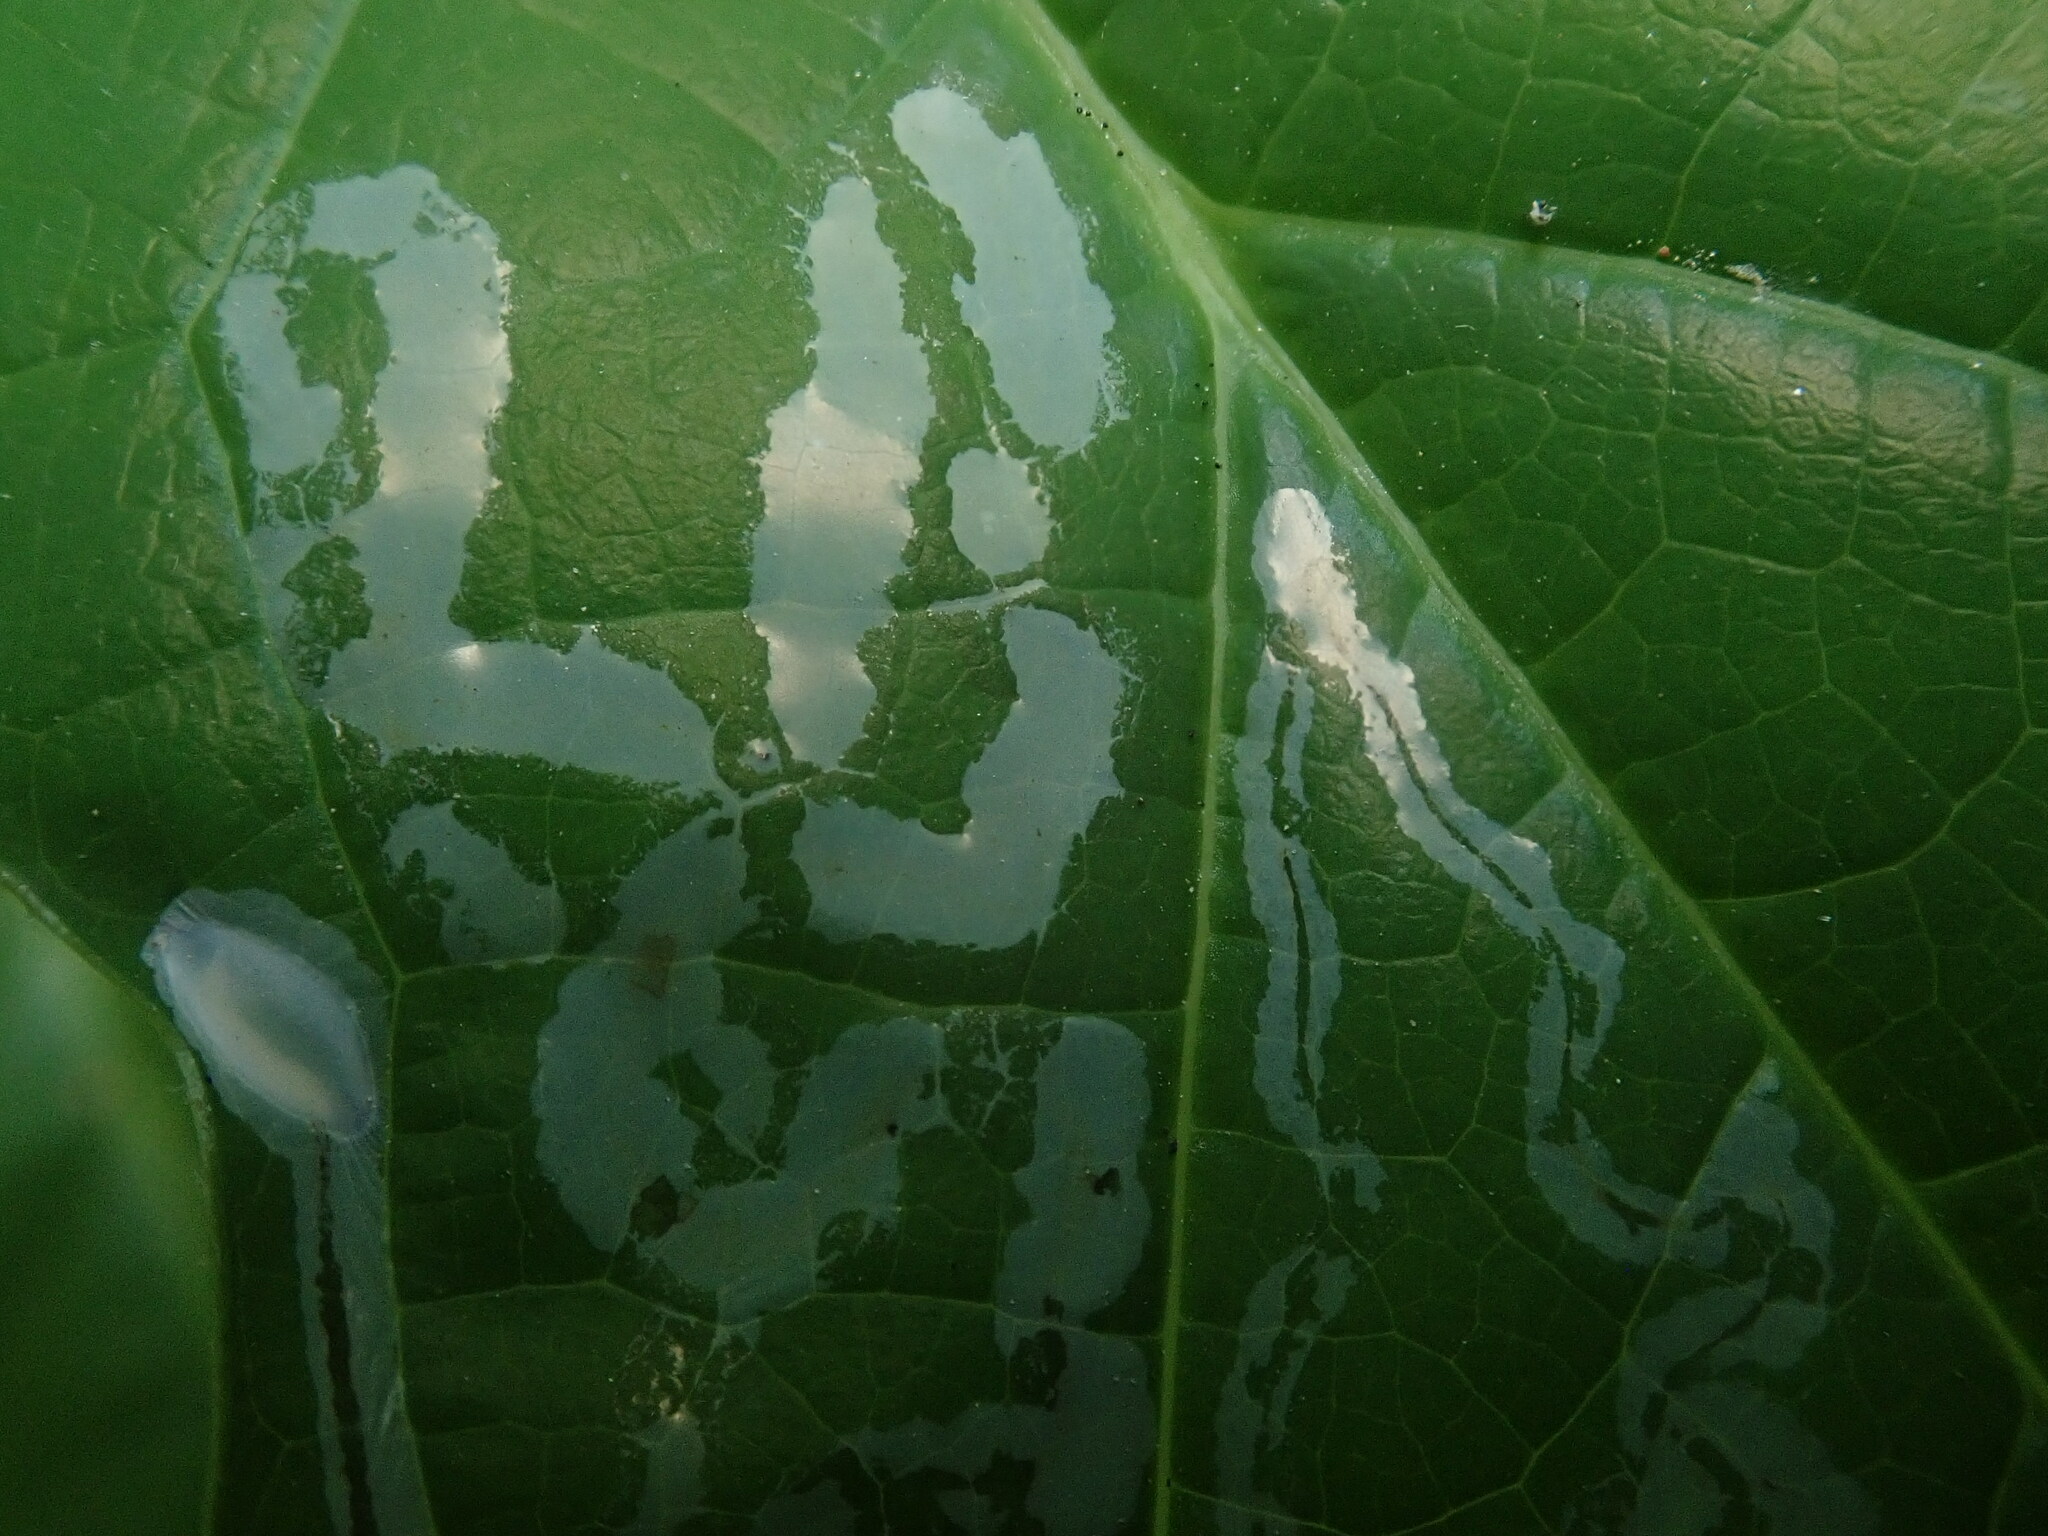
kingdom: Animalia
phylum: Arthropoda
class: Insecta
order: Lepidoptera
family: Gracillariidae
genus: Phyllocnistis
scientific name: Phyllocnistis liriodendronella
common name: Tulip tree leaf miner
